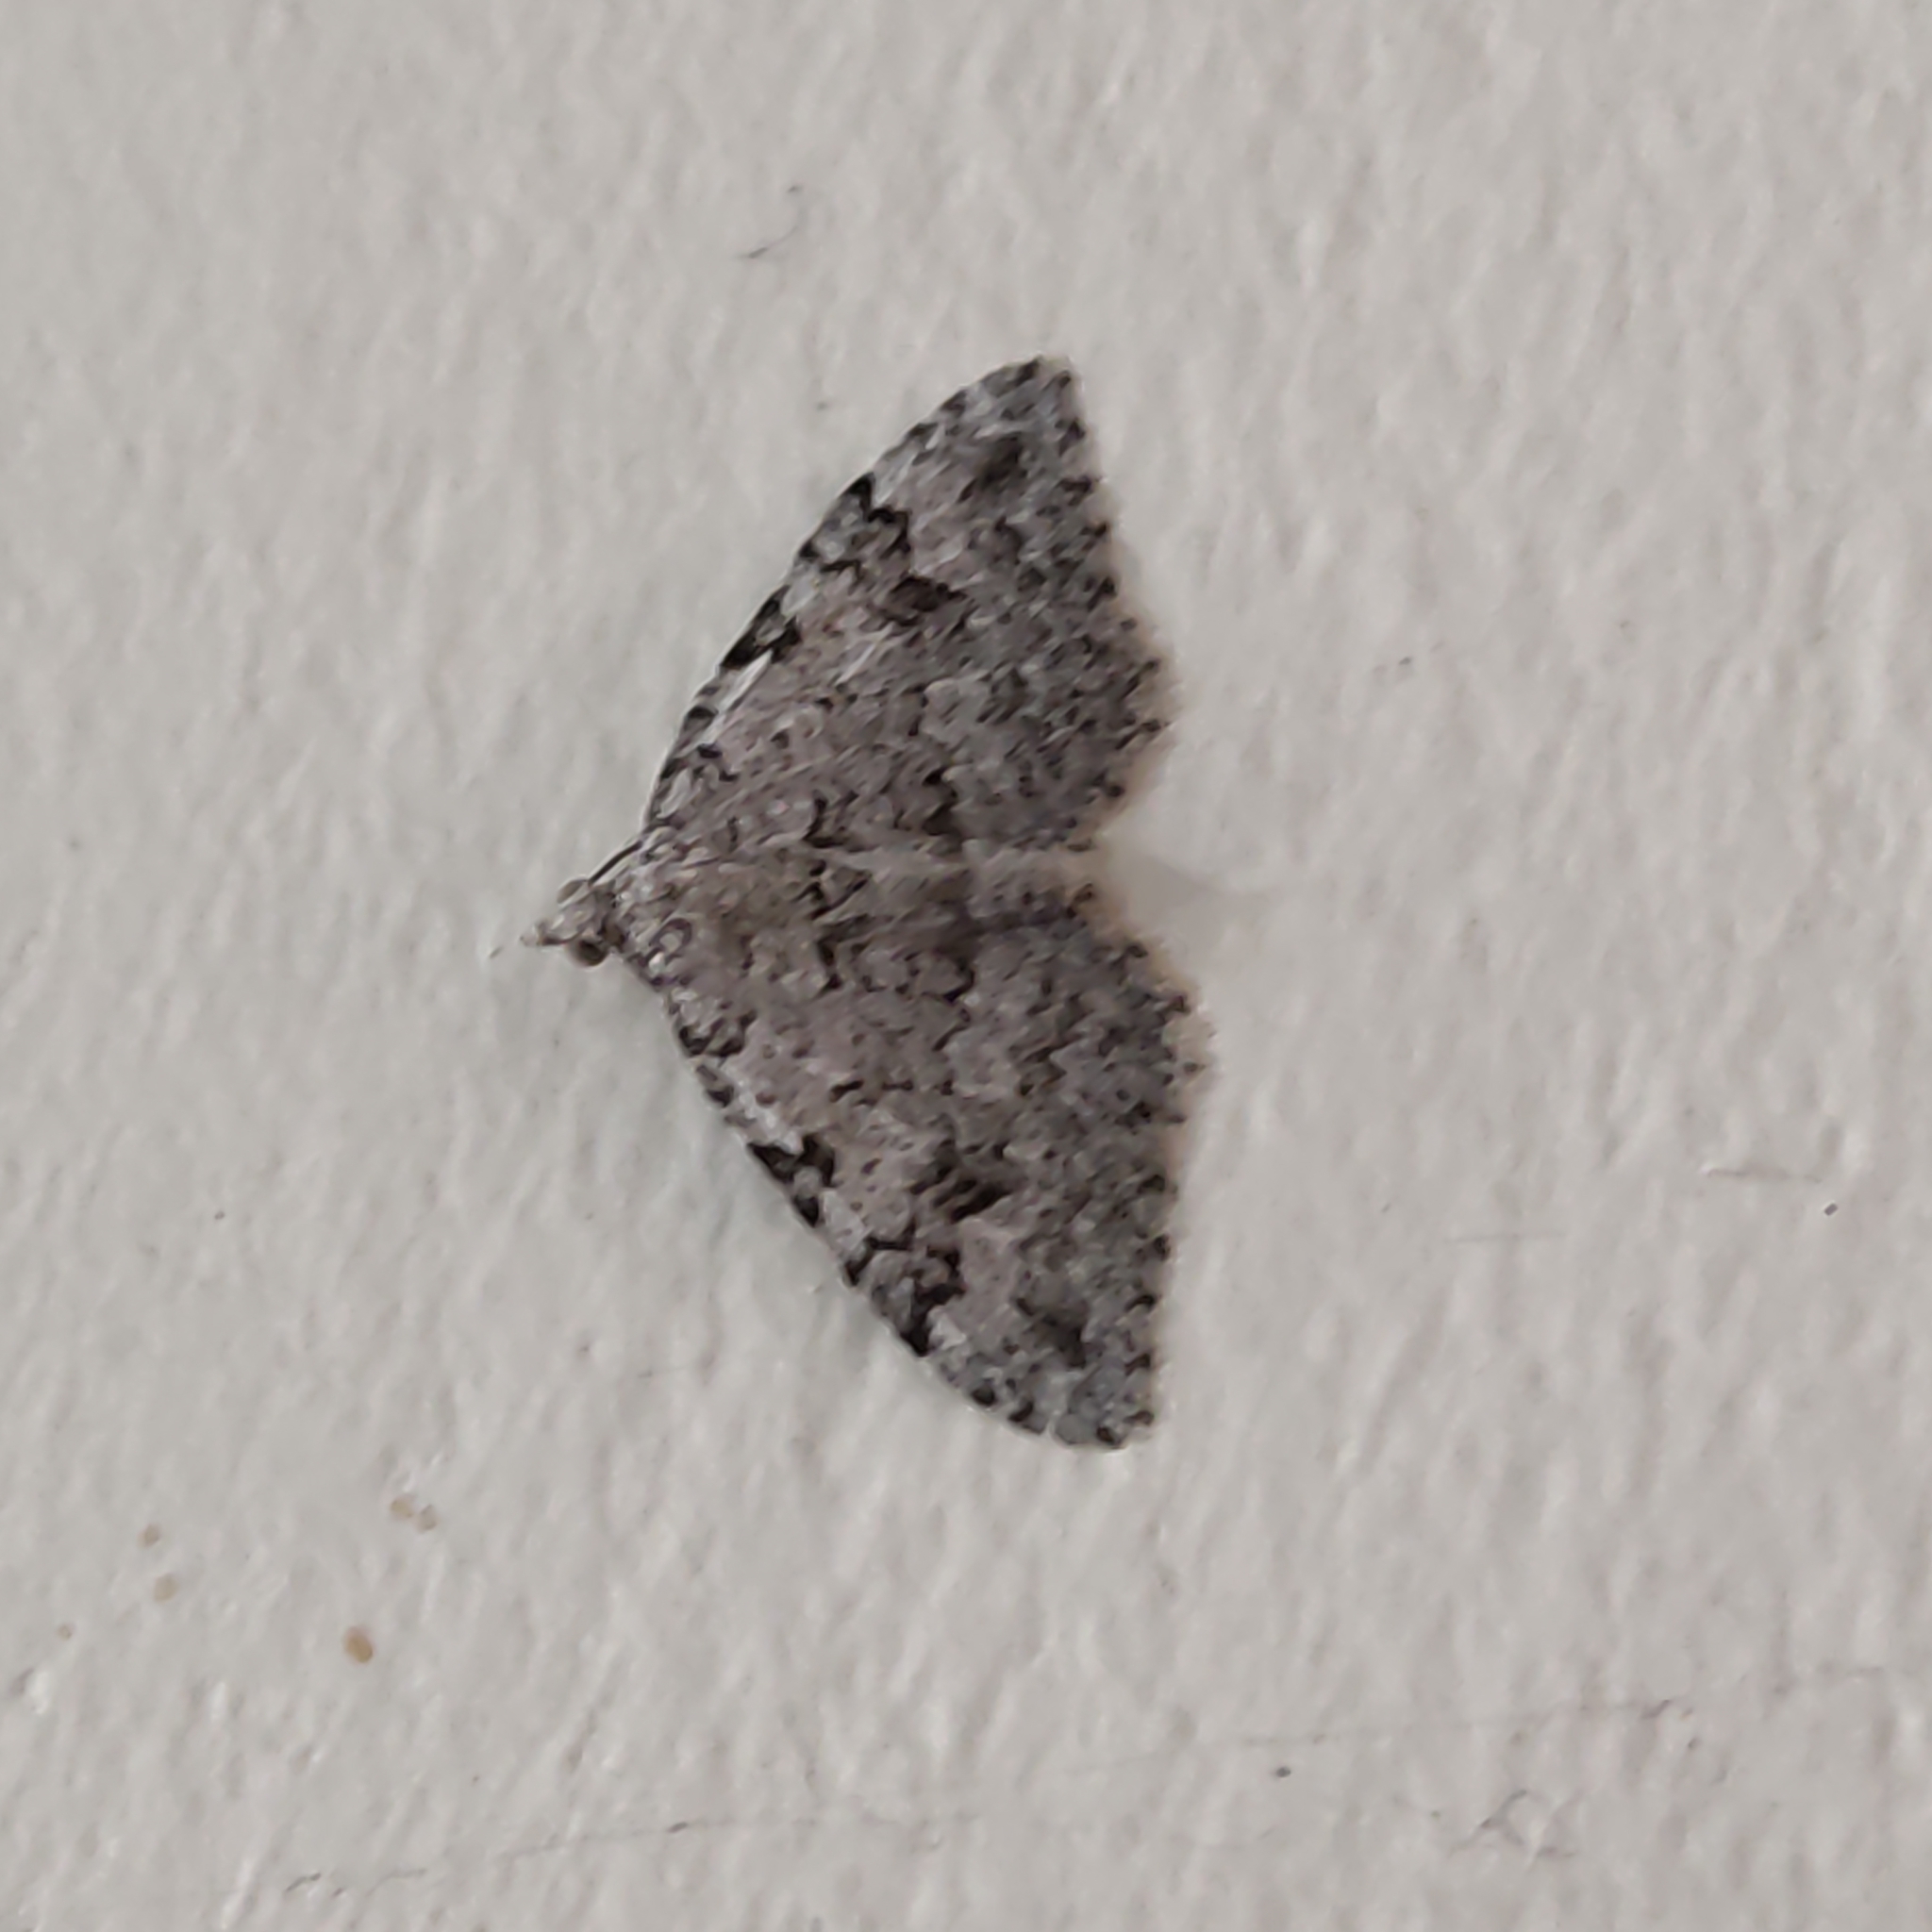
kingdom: Animalia
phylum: Arthropoda
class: Insecta
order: Lepidoptera
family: Geometridae
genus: Helastia
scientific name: Helastia cinerearia
